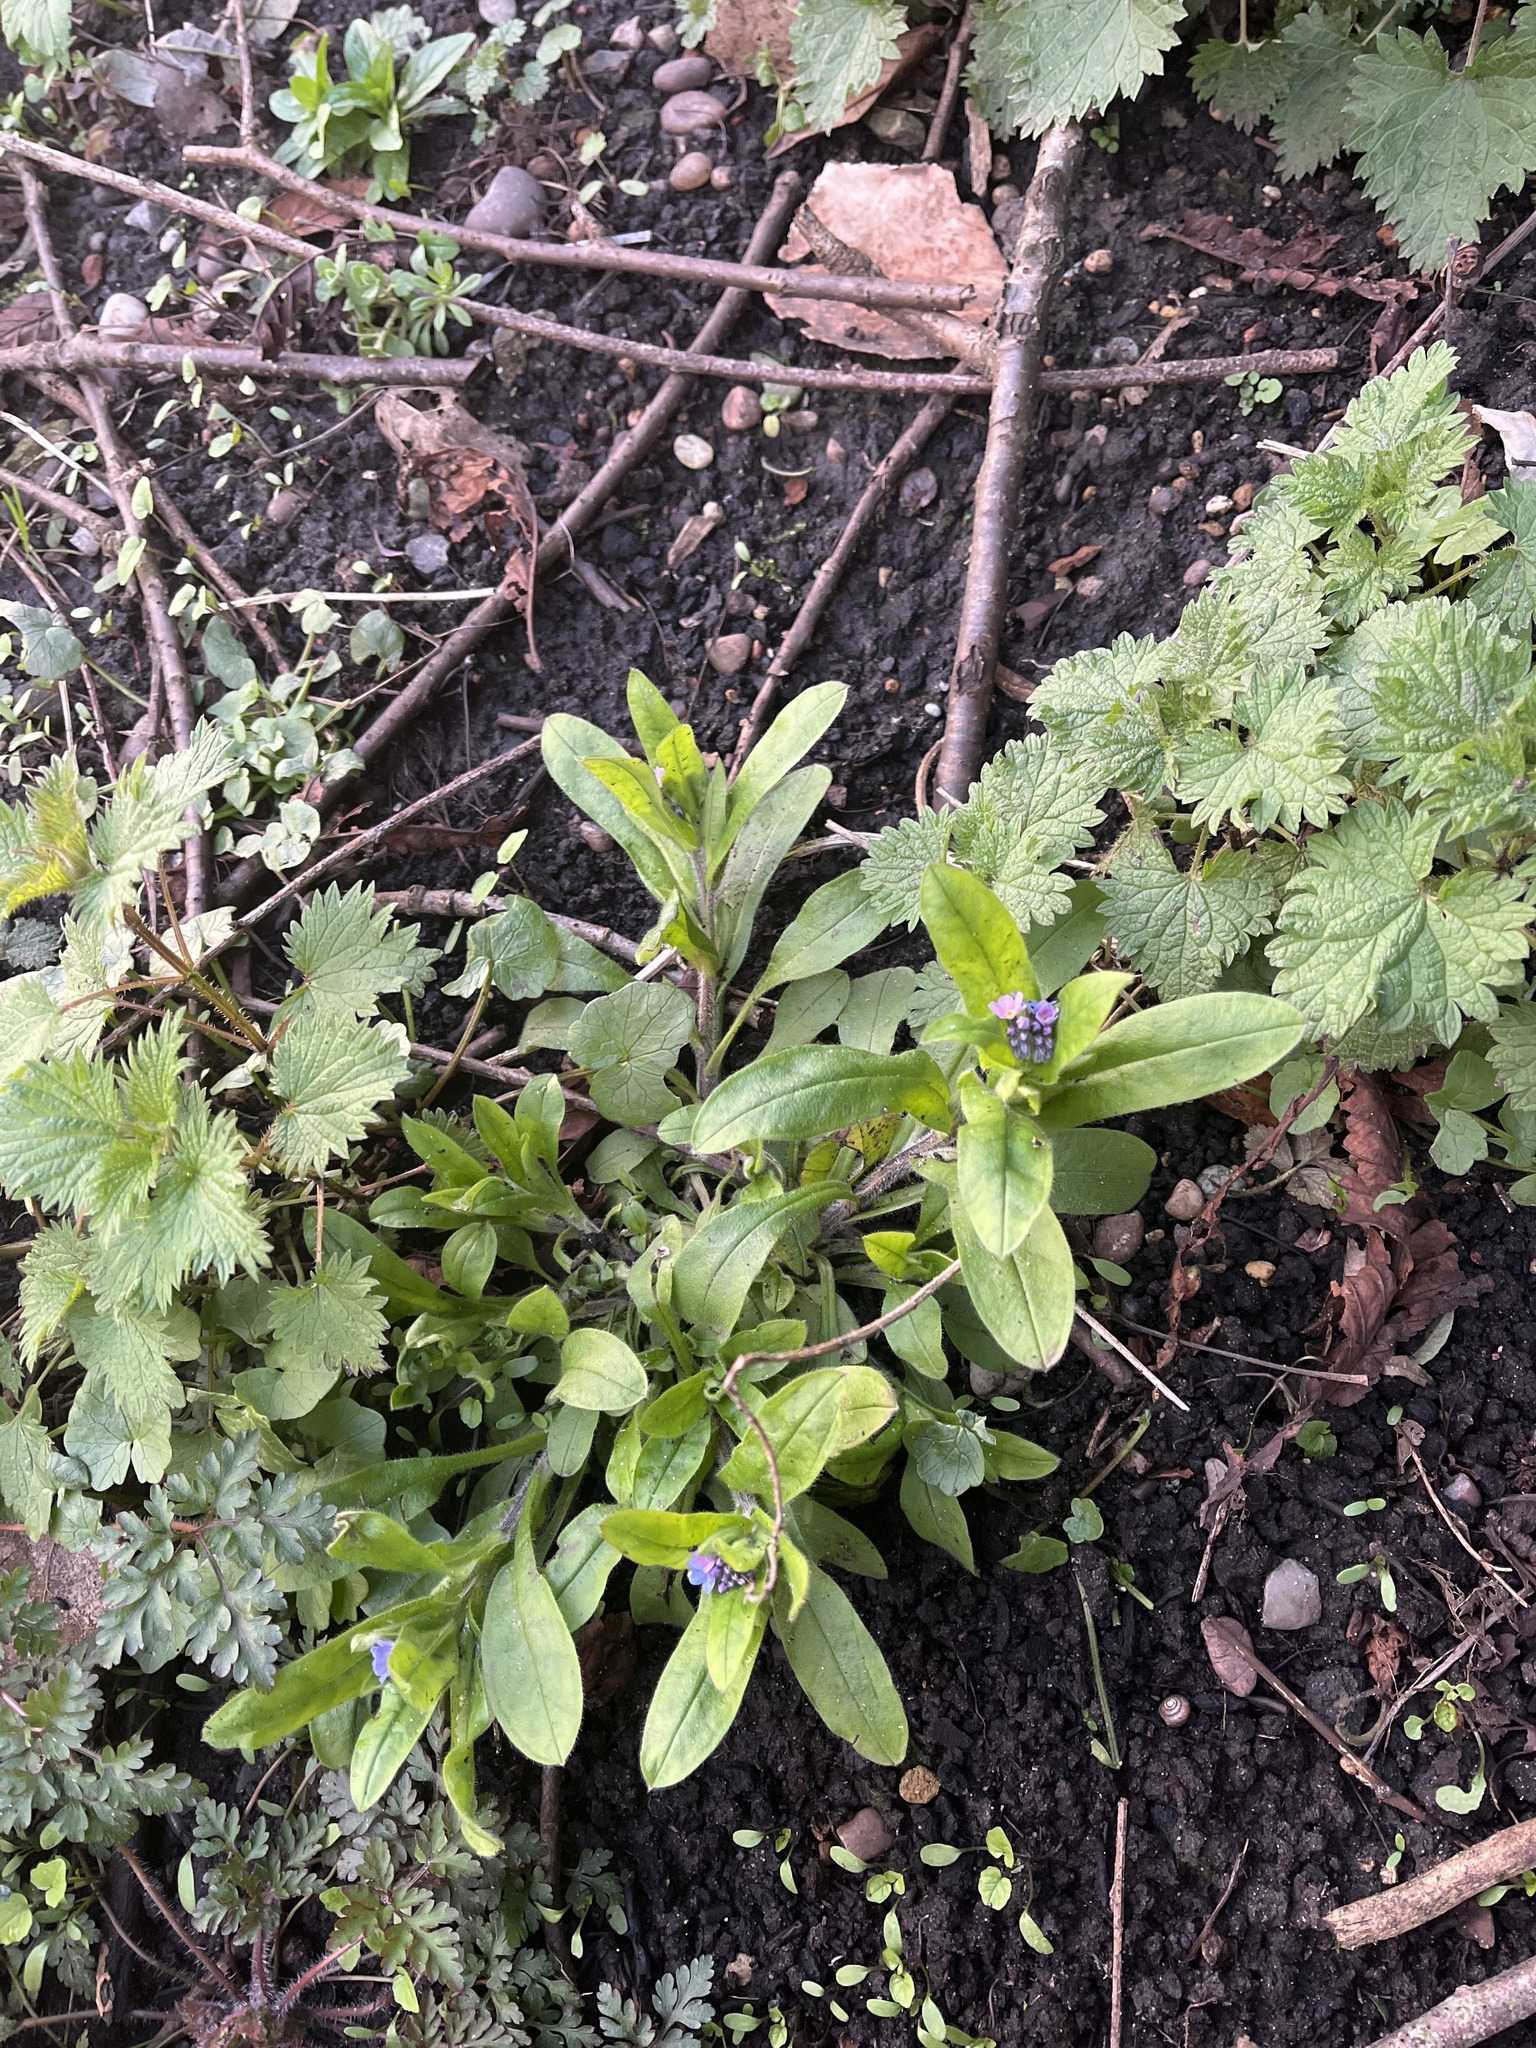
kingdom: Plantae
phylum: Tracheophyta
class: Magnoliopsida
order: Boraginales
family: Boraginaceae
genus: Myosotis
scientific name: Myosotis sylvatica
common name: Wood forget-me-not
